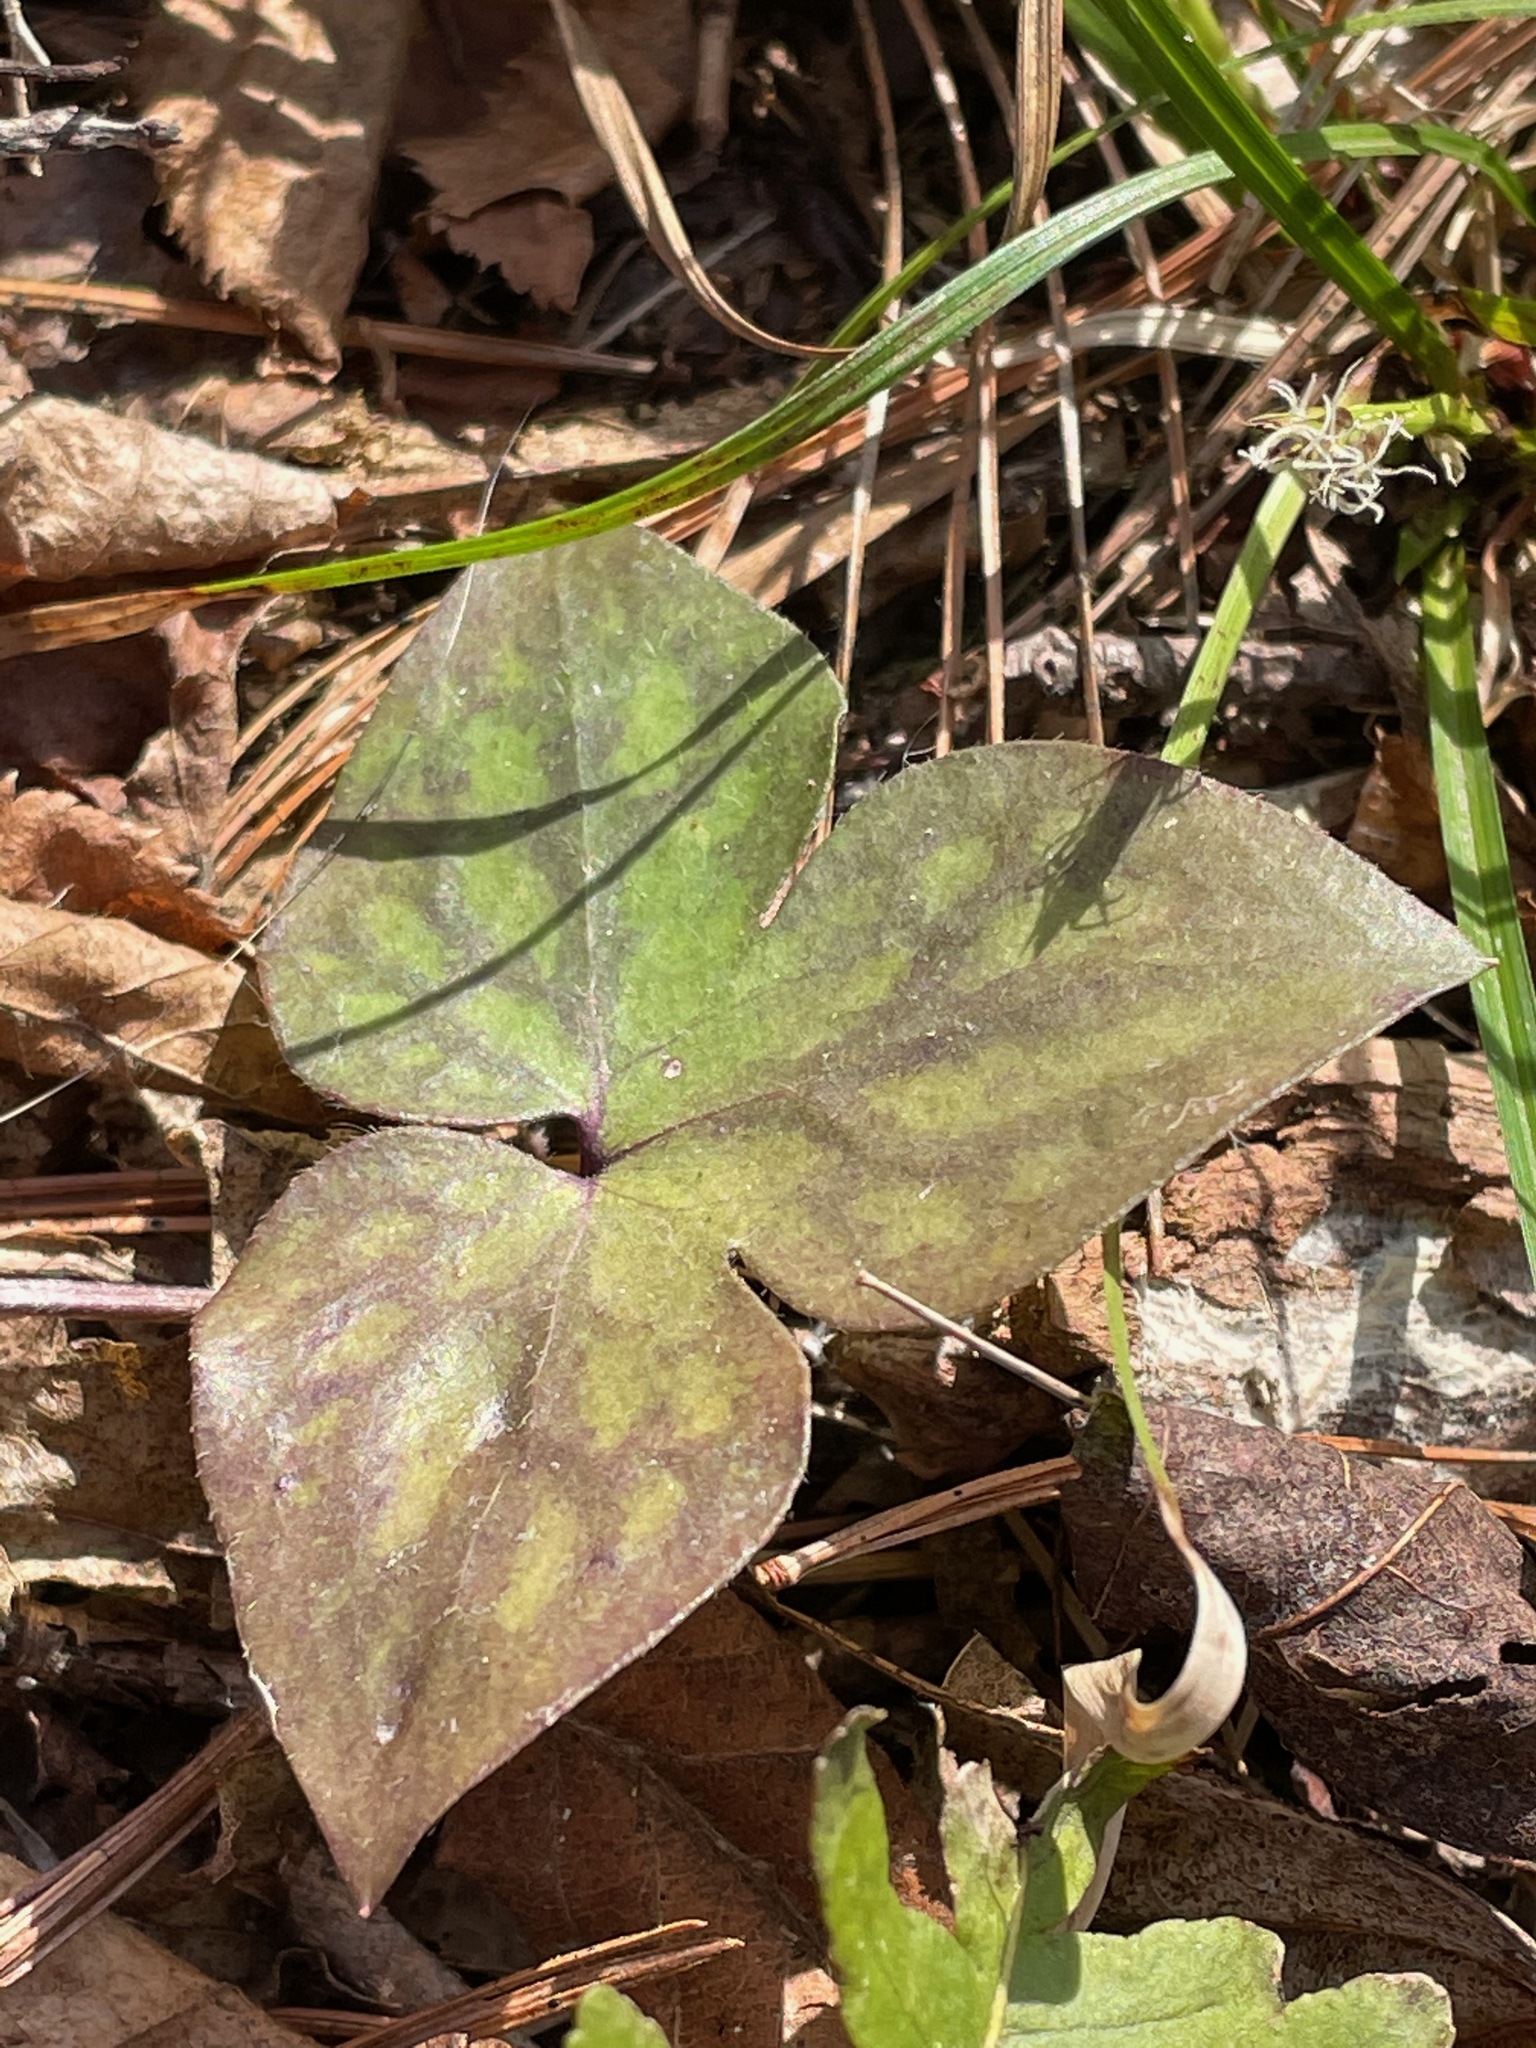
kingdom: Plantae
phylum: Tracheophyta
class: Magnoliopsida
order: Ranunculales
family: Ranunculaceae
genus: Hepatica
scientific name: Hepatica acutiloba
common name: Sharp-lobed hepatica
